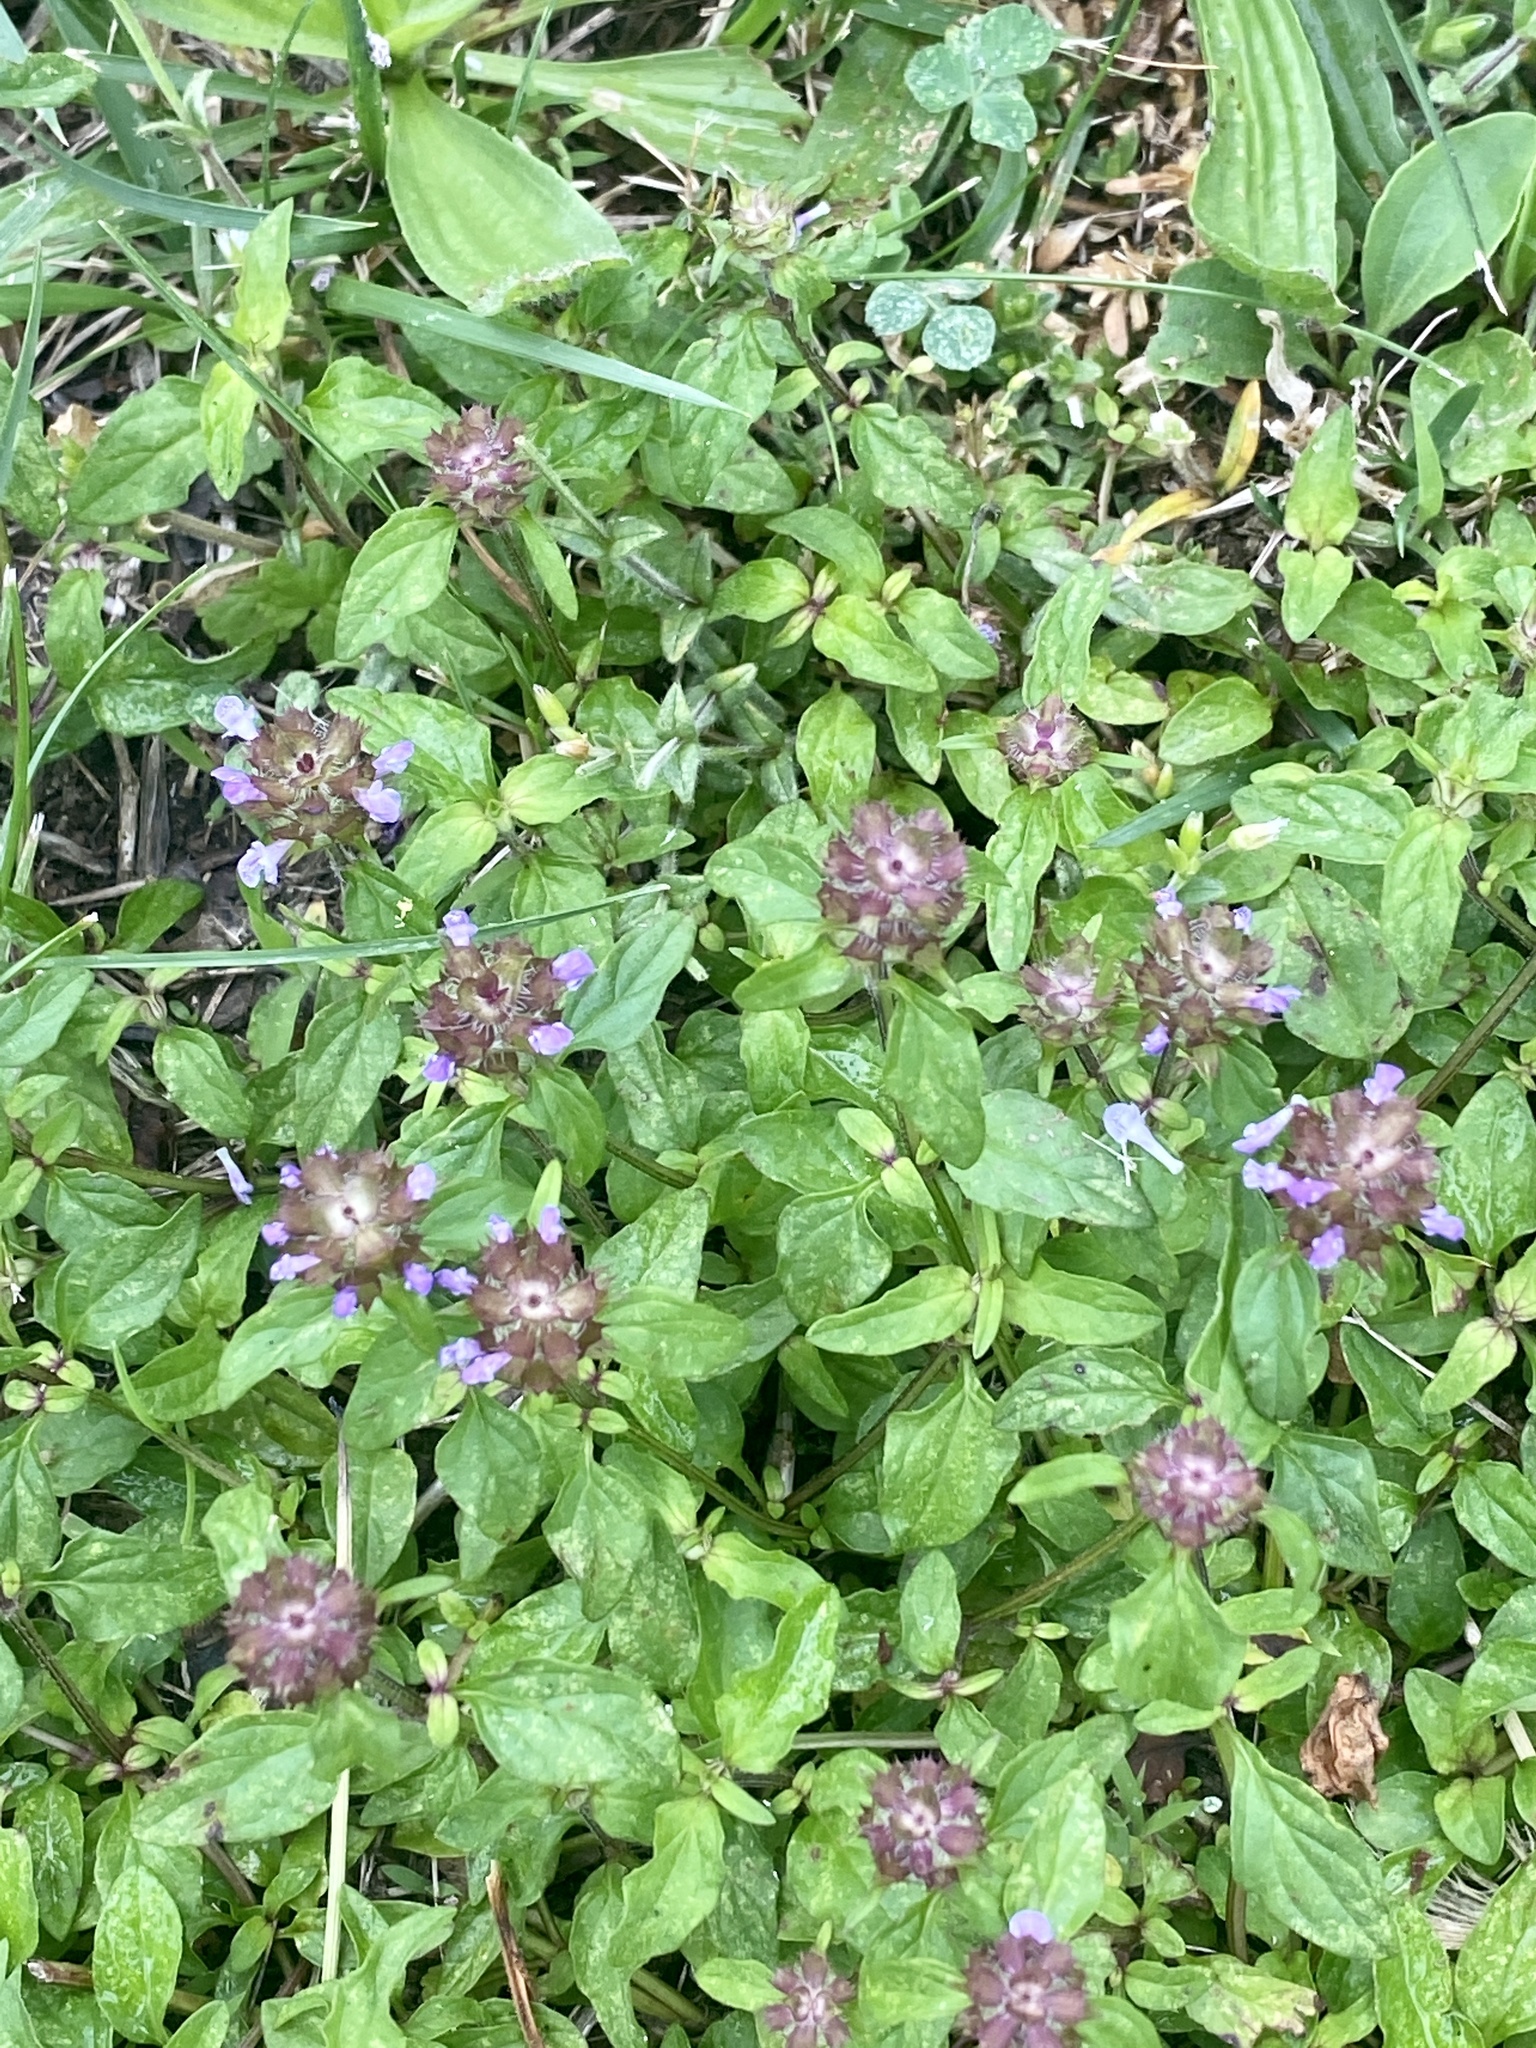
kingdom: Plantae
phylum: Tracheophyta
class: Magnoliopsida
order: Lamiales
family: Lamiaceae
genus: Prunella
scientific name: Prunella vulgaris
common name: Heal-all
